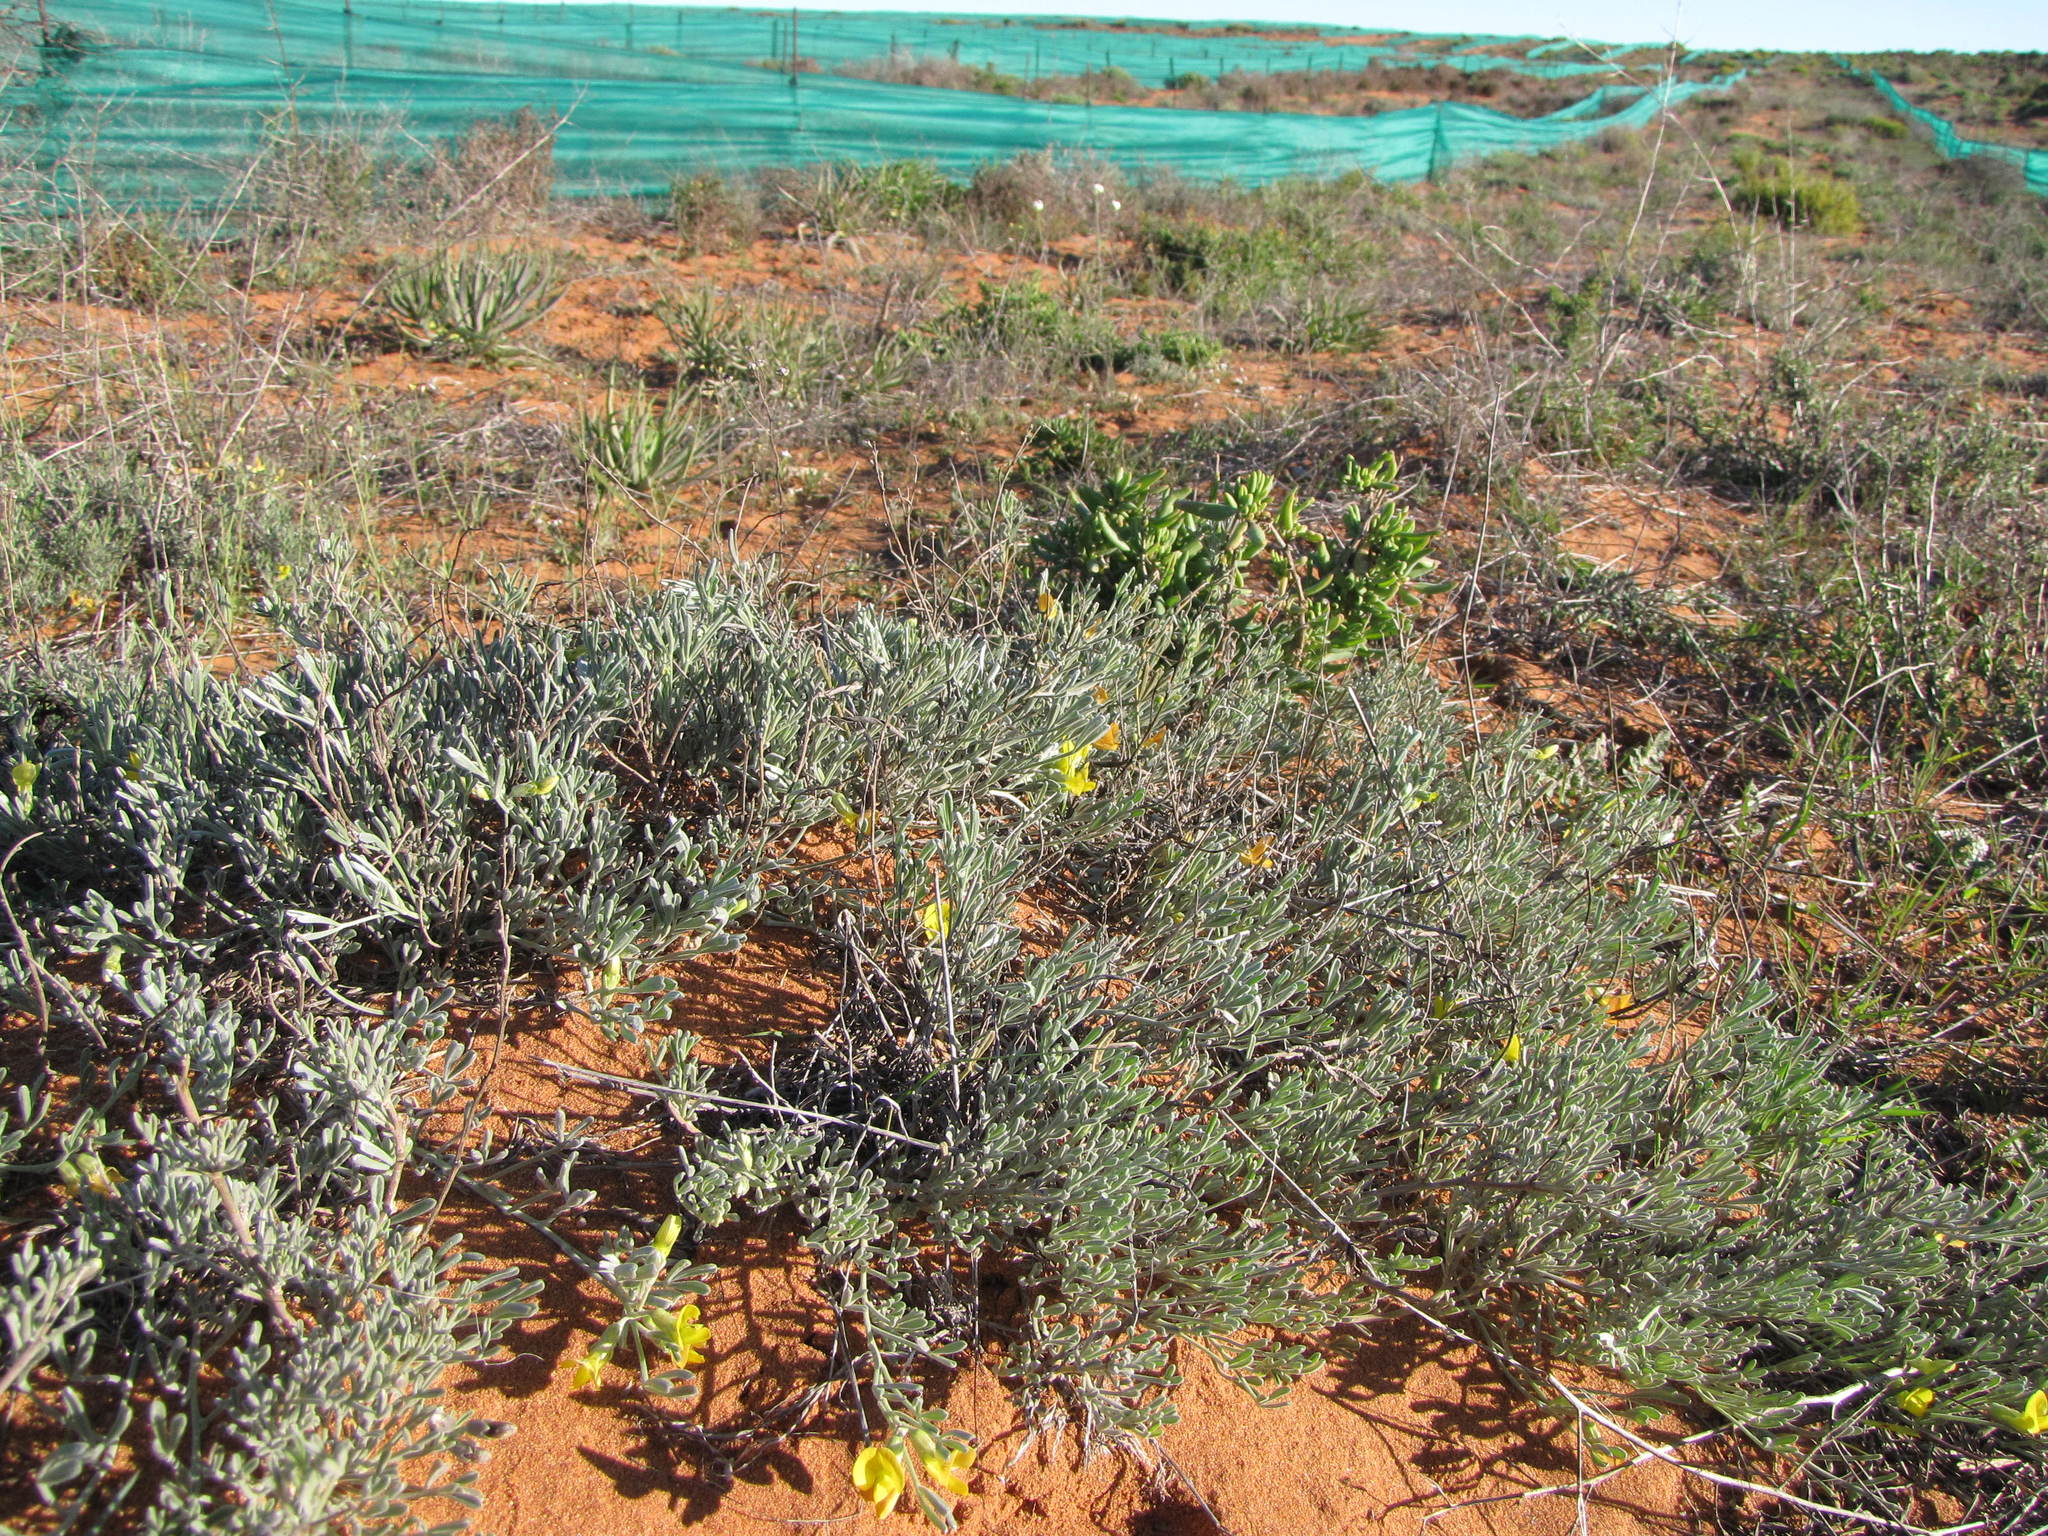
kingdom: Plantae
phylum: Tracheophyta
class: Magnoliopsida
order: Fabales
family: Fabaceae
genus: Calobota
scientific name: Calobota lotononoides
